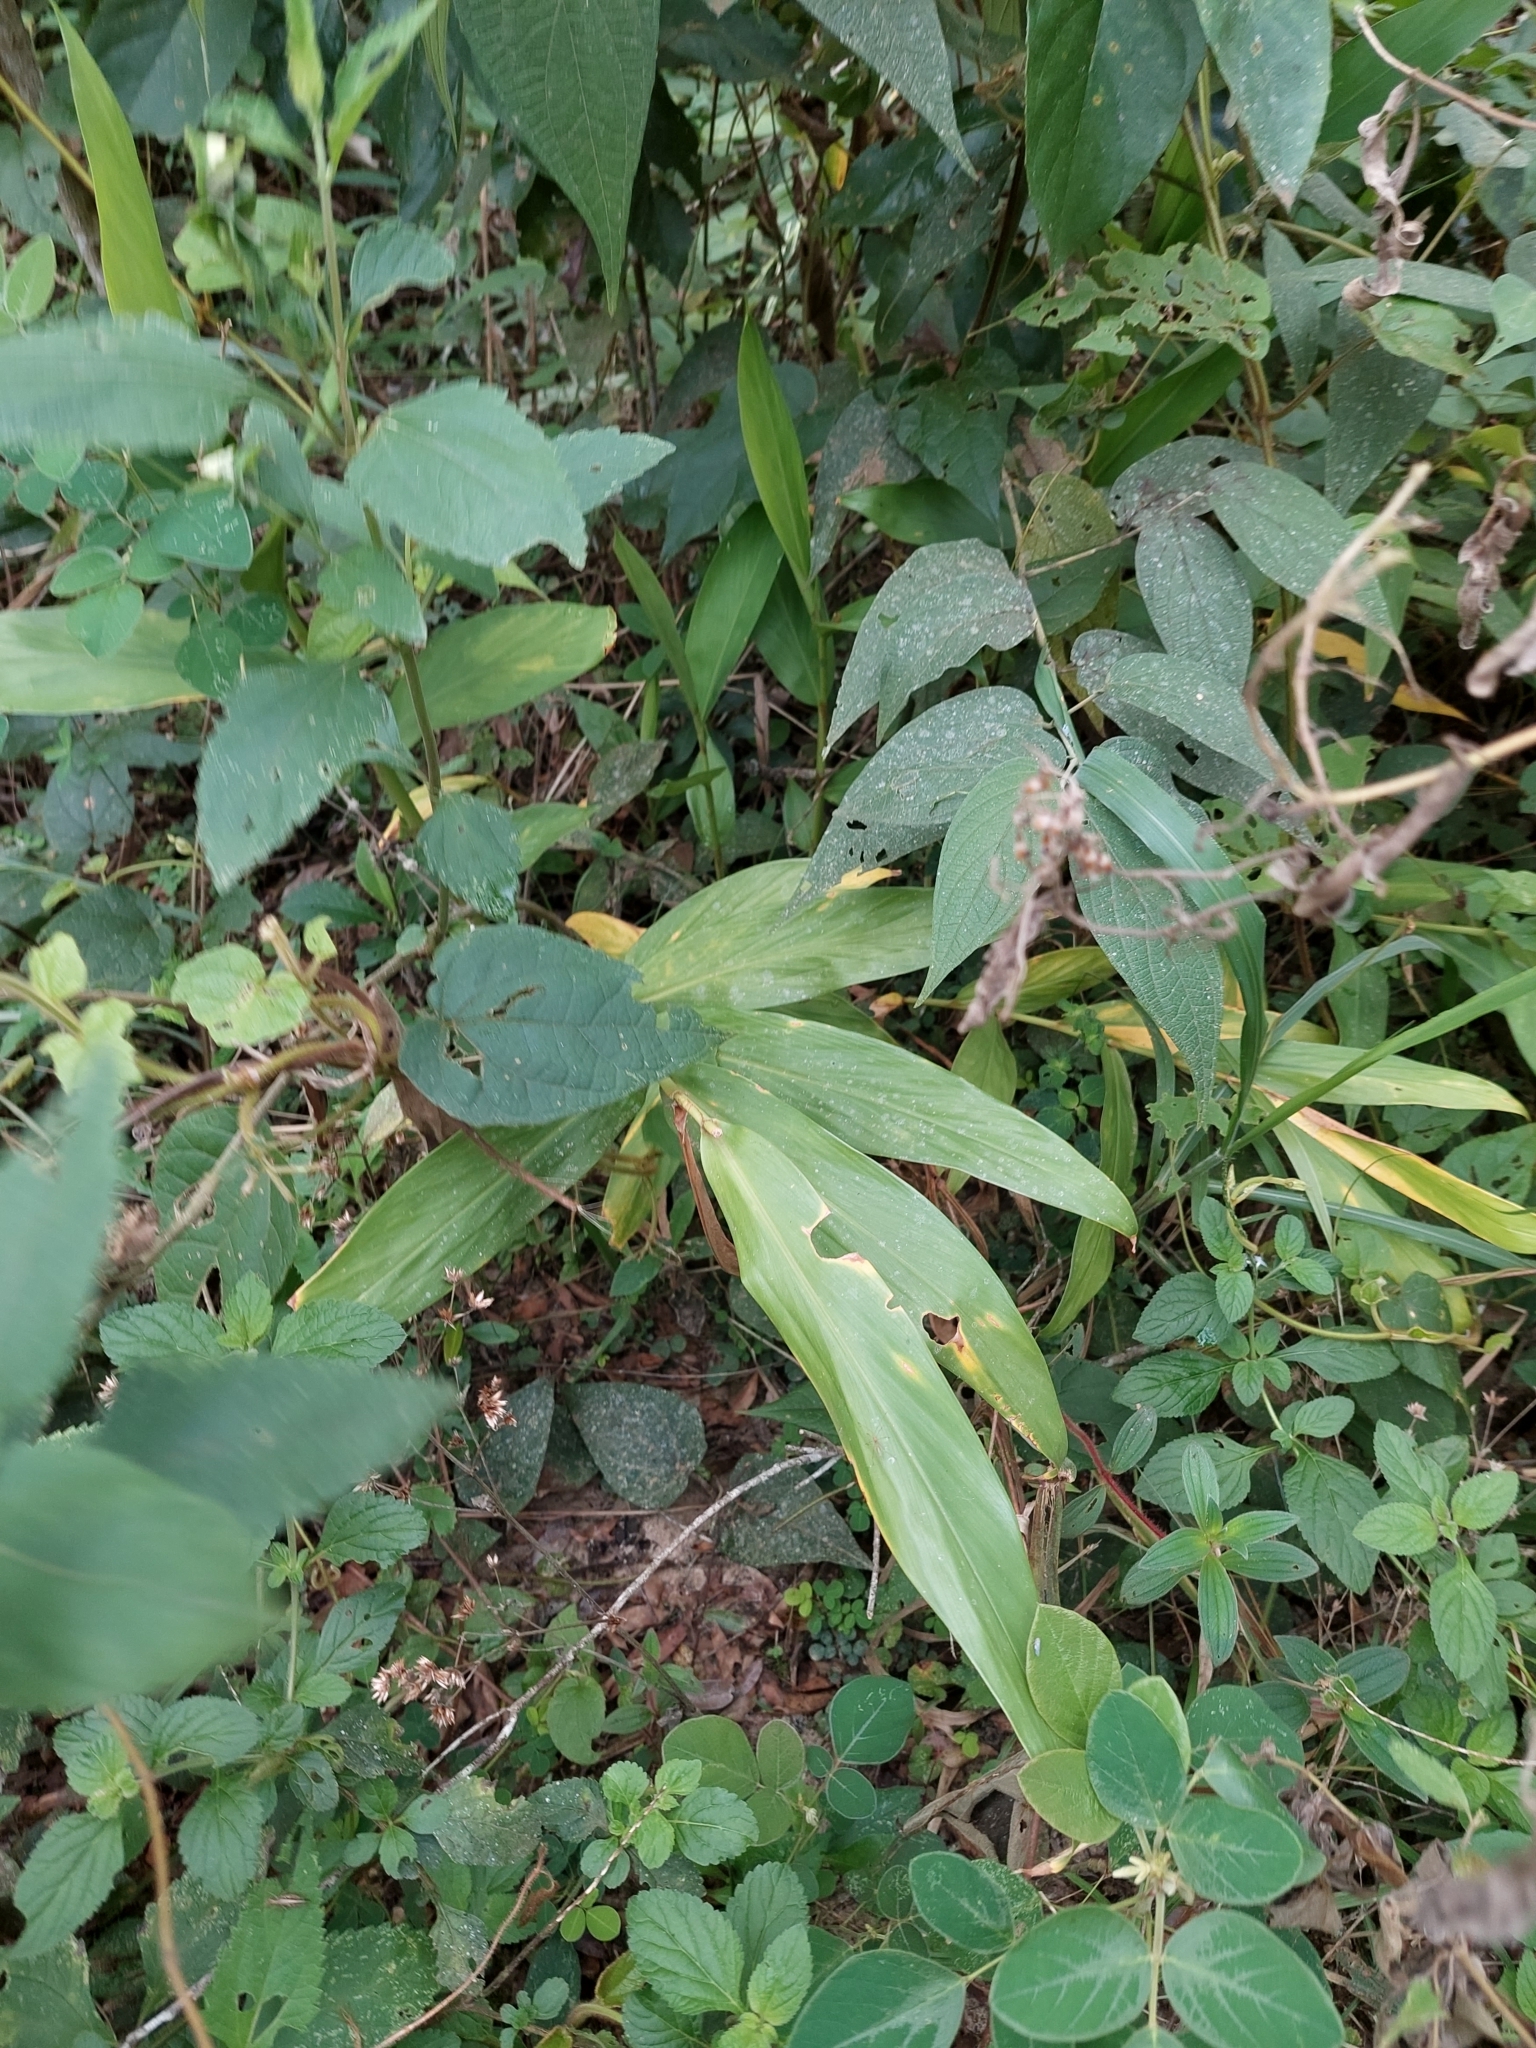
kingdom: Plantae
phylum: Tracheophyta
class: Liliopsida
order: Zingiberales
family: Zingiberaceae
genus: Hedychium
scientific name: Hedychium coronarium
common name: White garland-lily
